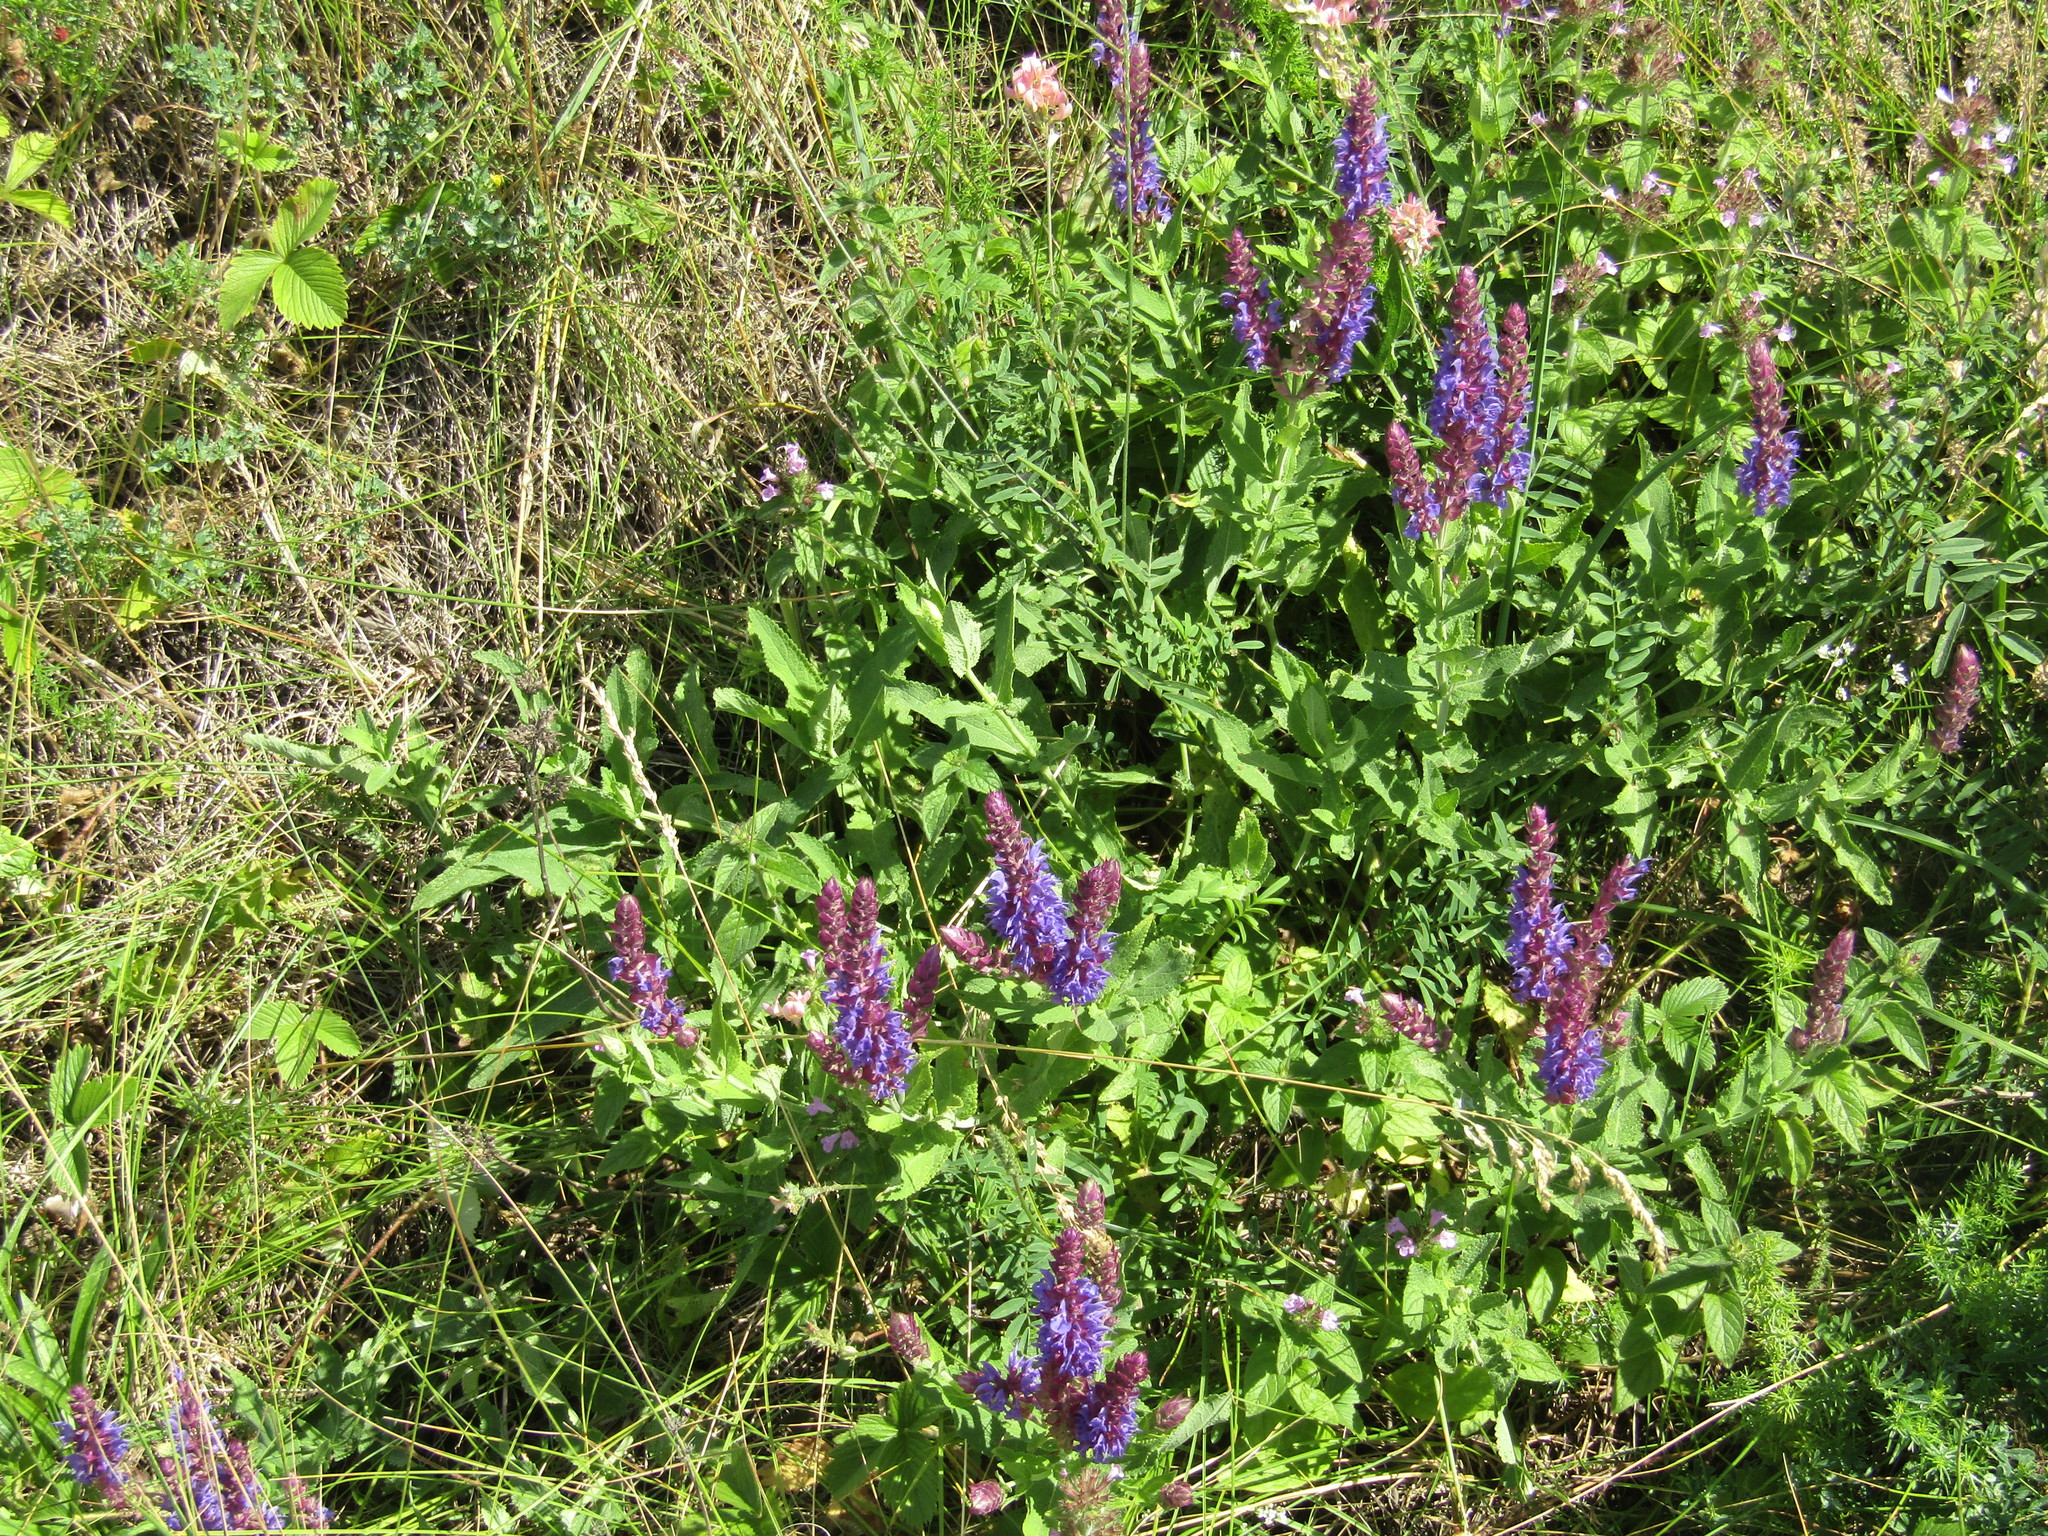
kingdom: Plantae
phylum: Tracheophyta
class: Magnoliopsida
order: Lamiales
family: Lamiaceae
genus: Salvia
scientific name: Salvia nemorosa
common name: Balkan clary
